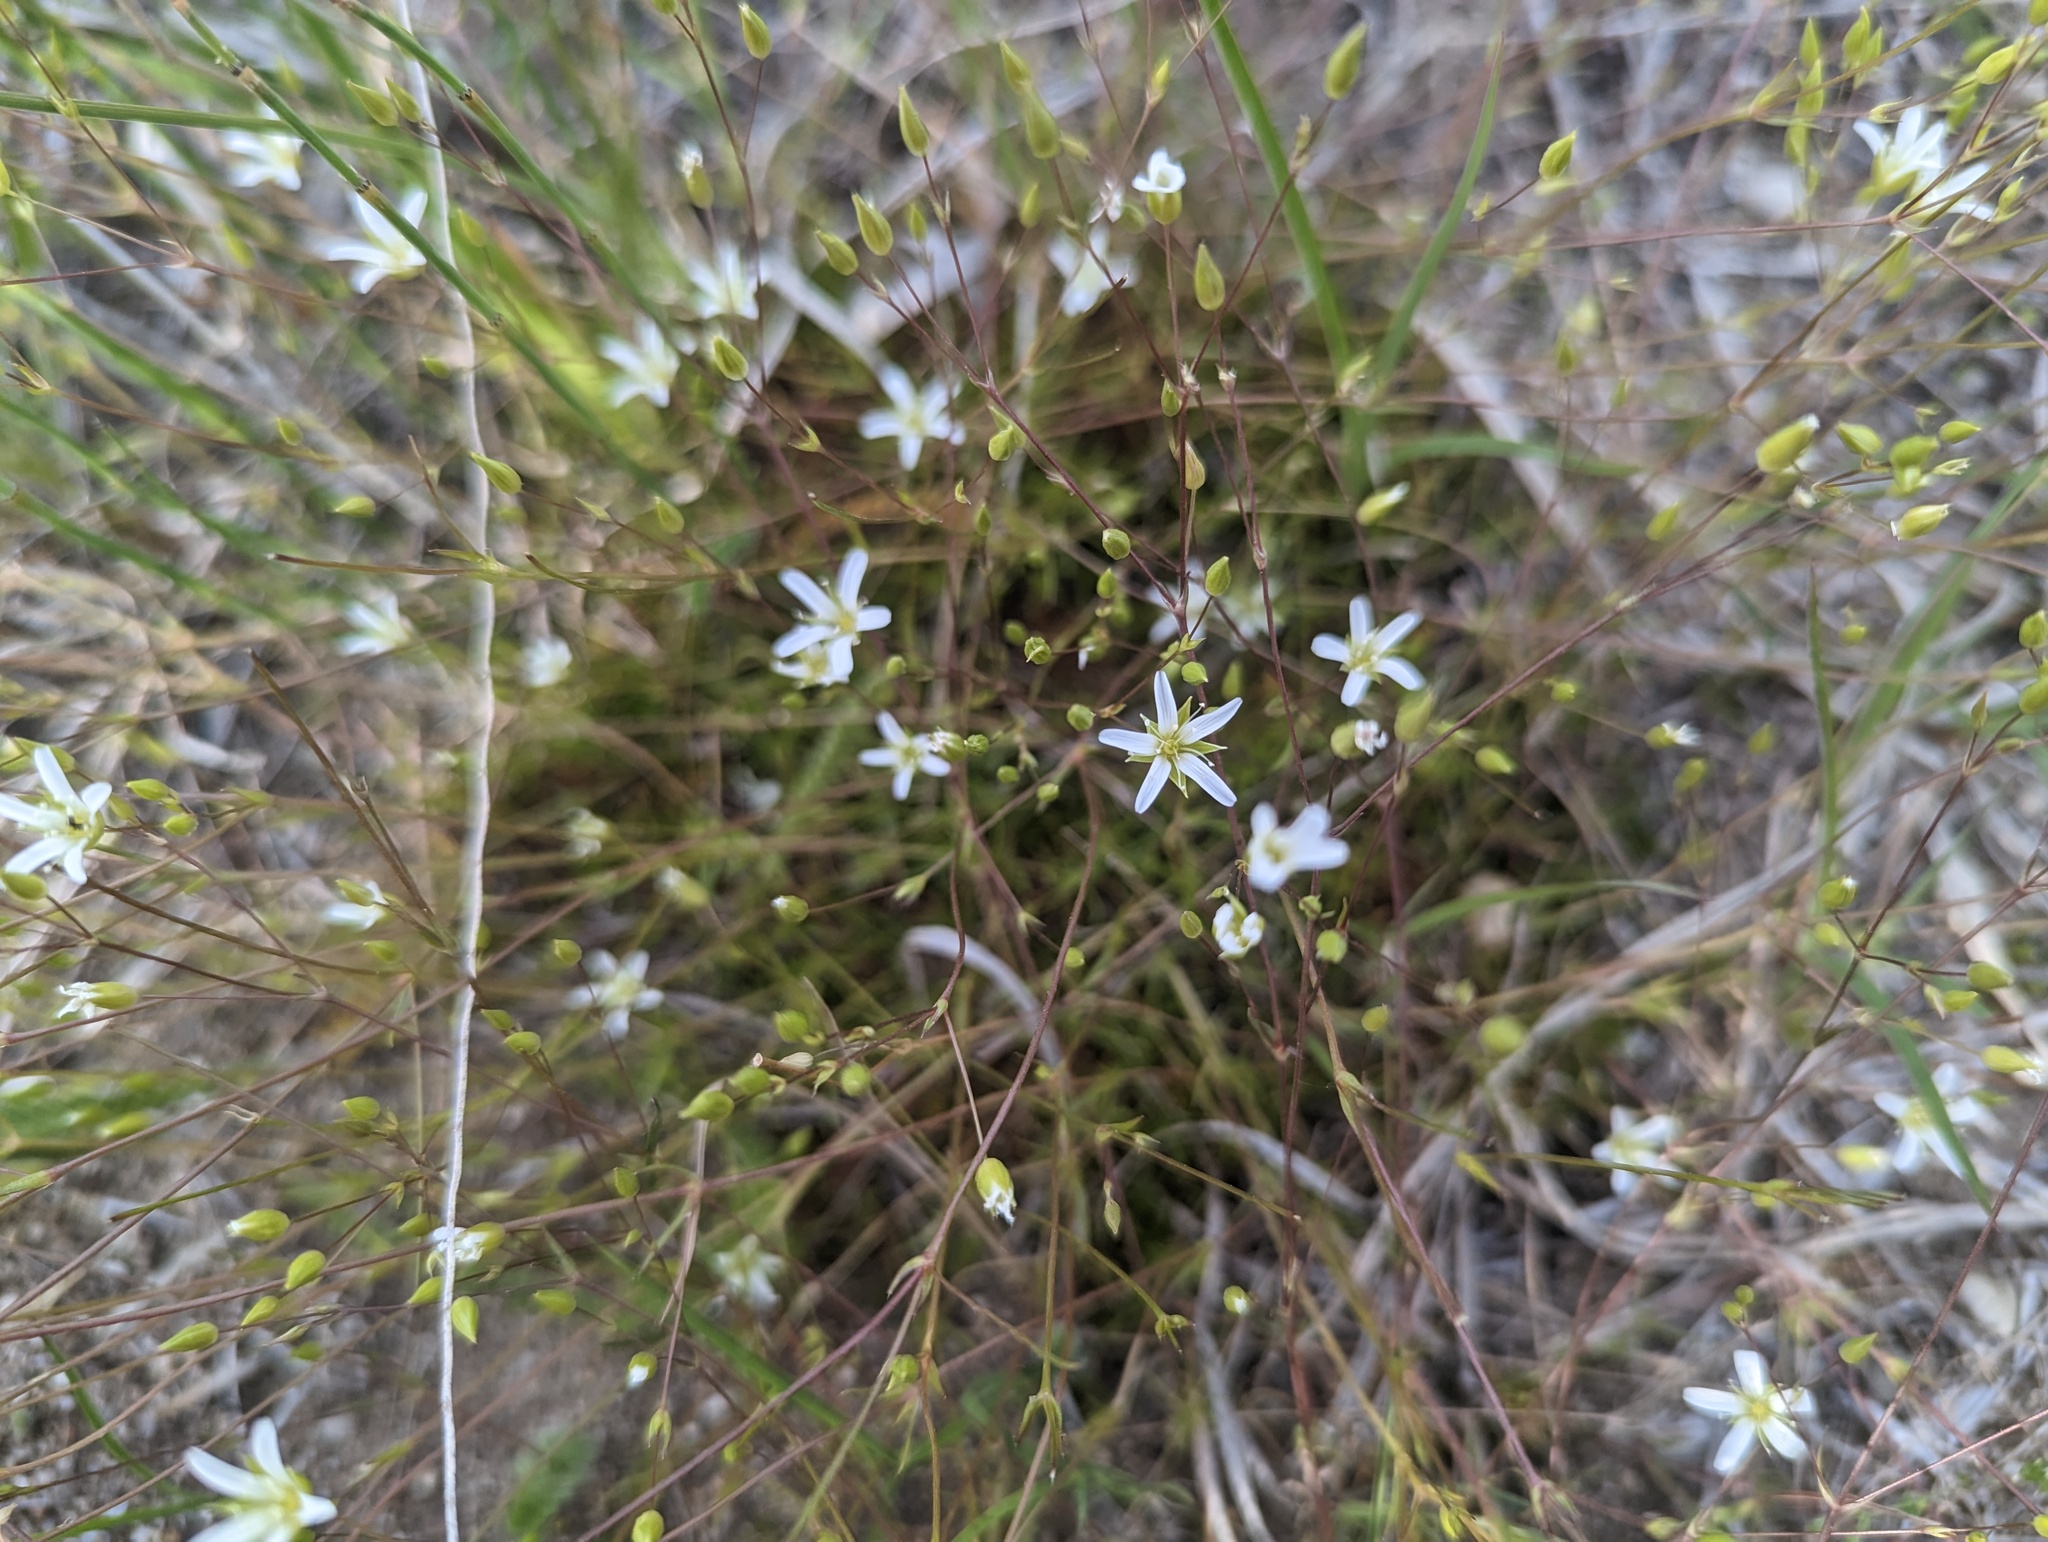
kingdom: Plantae
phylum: Tracheophyta
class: Magnoliopsida
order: Caryophyllales
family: Caryophyllaceae
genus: Sabulina
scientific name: Sabulina michauxii
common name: Michaux's stitchwort
